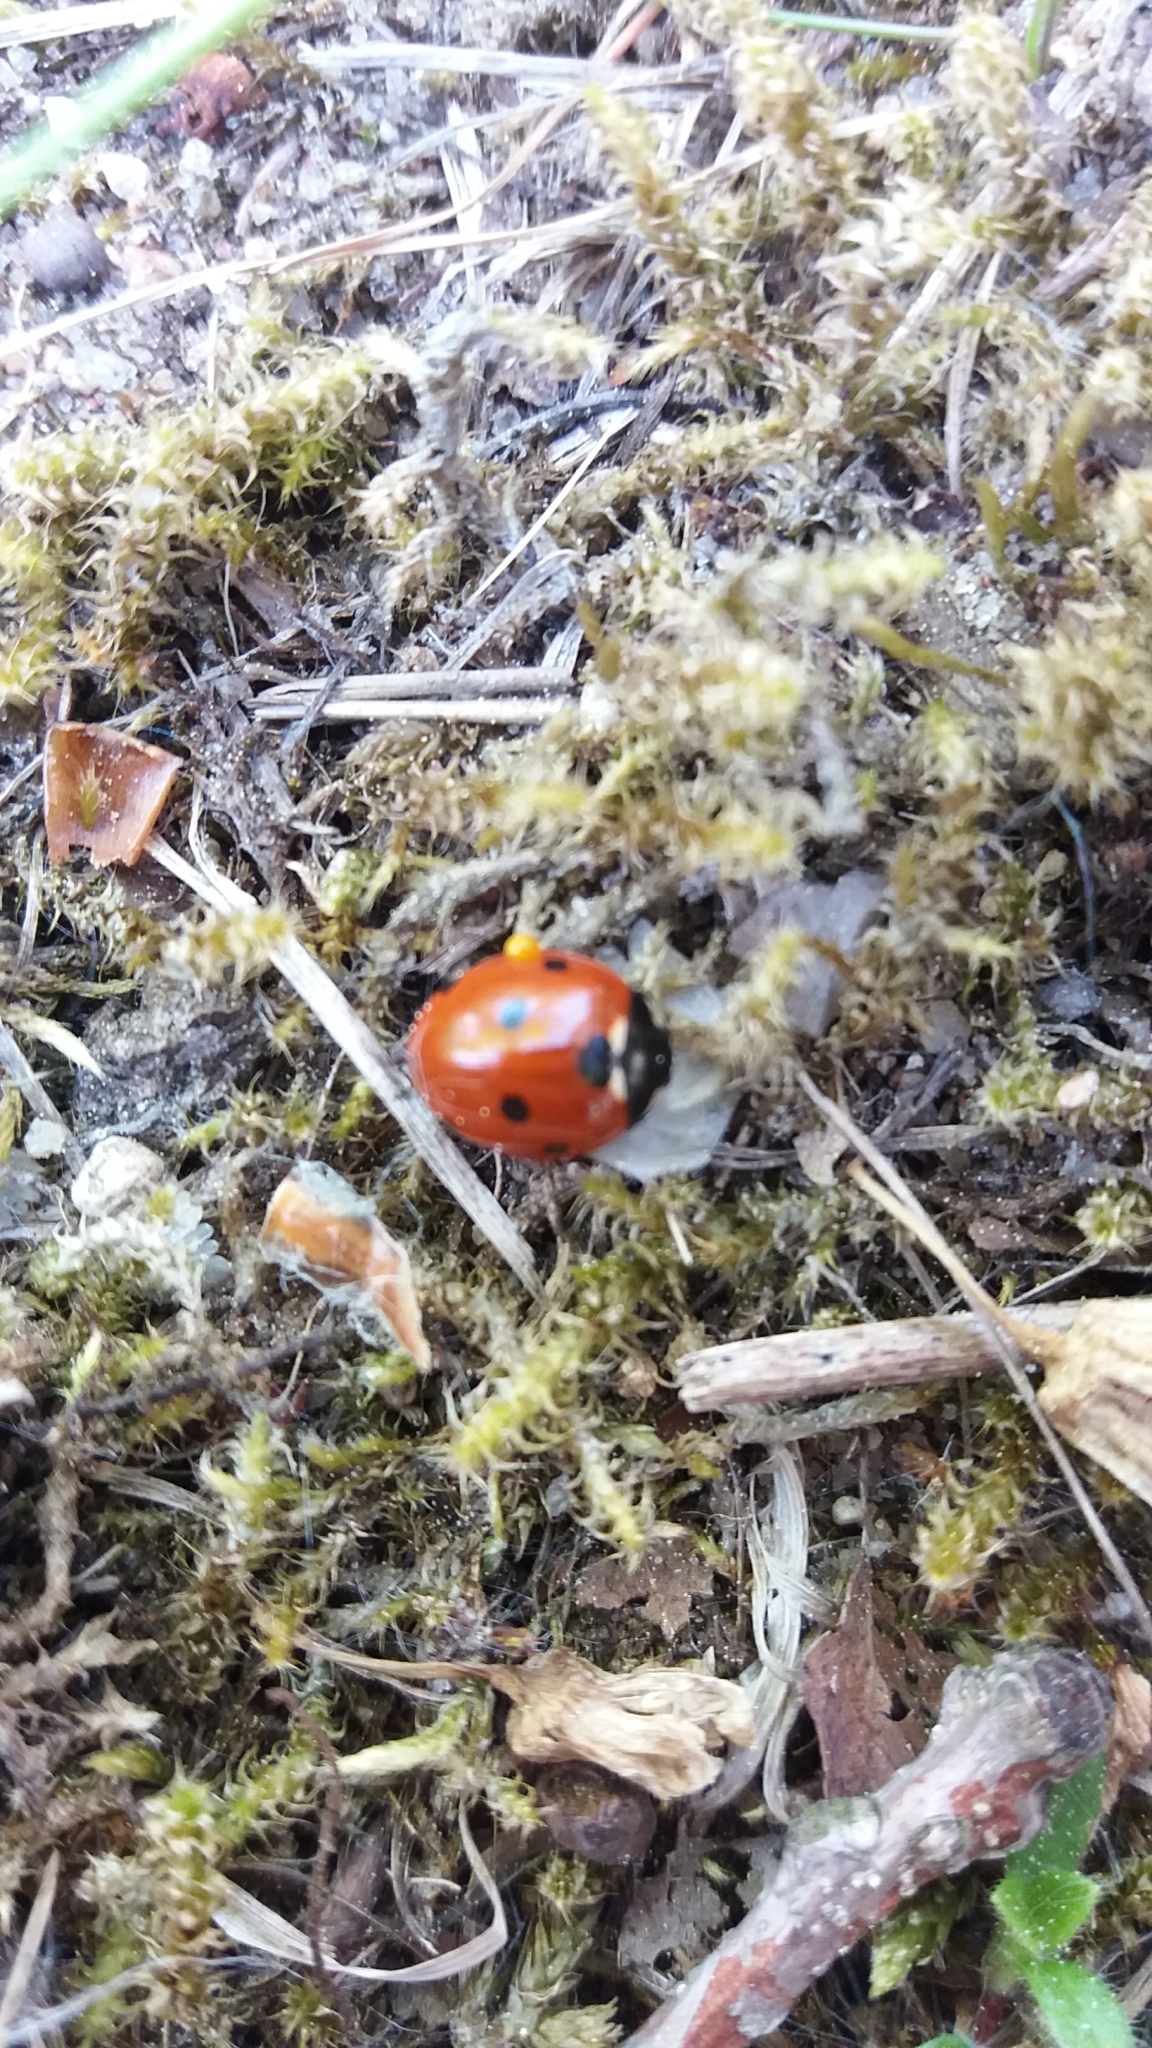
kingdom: Animalia
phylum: Arthropoda
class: Insecta
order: Coleoptera
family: Coccinellidae
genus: Coccinella
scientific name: Coccinella septempunctata
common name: Sevenspotted lady beetle
